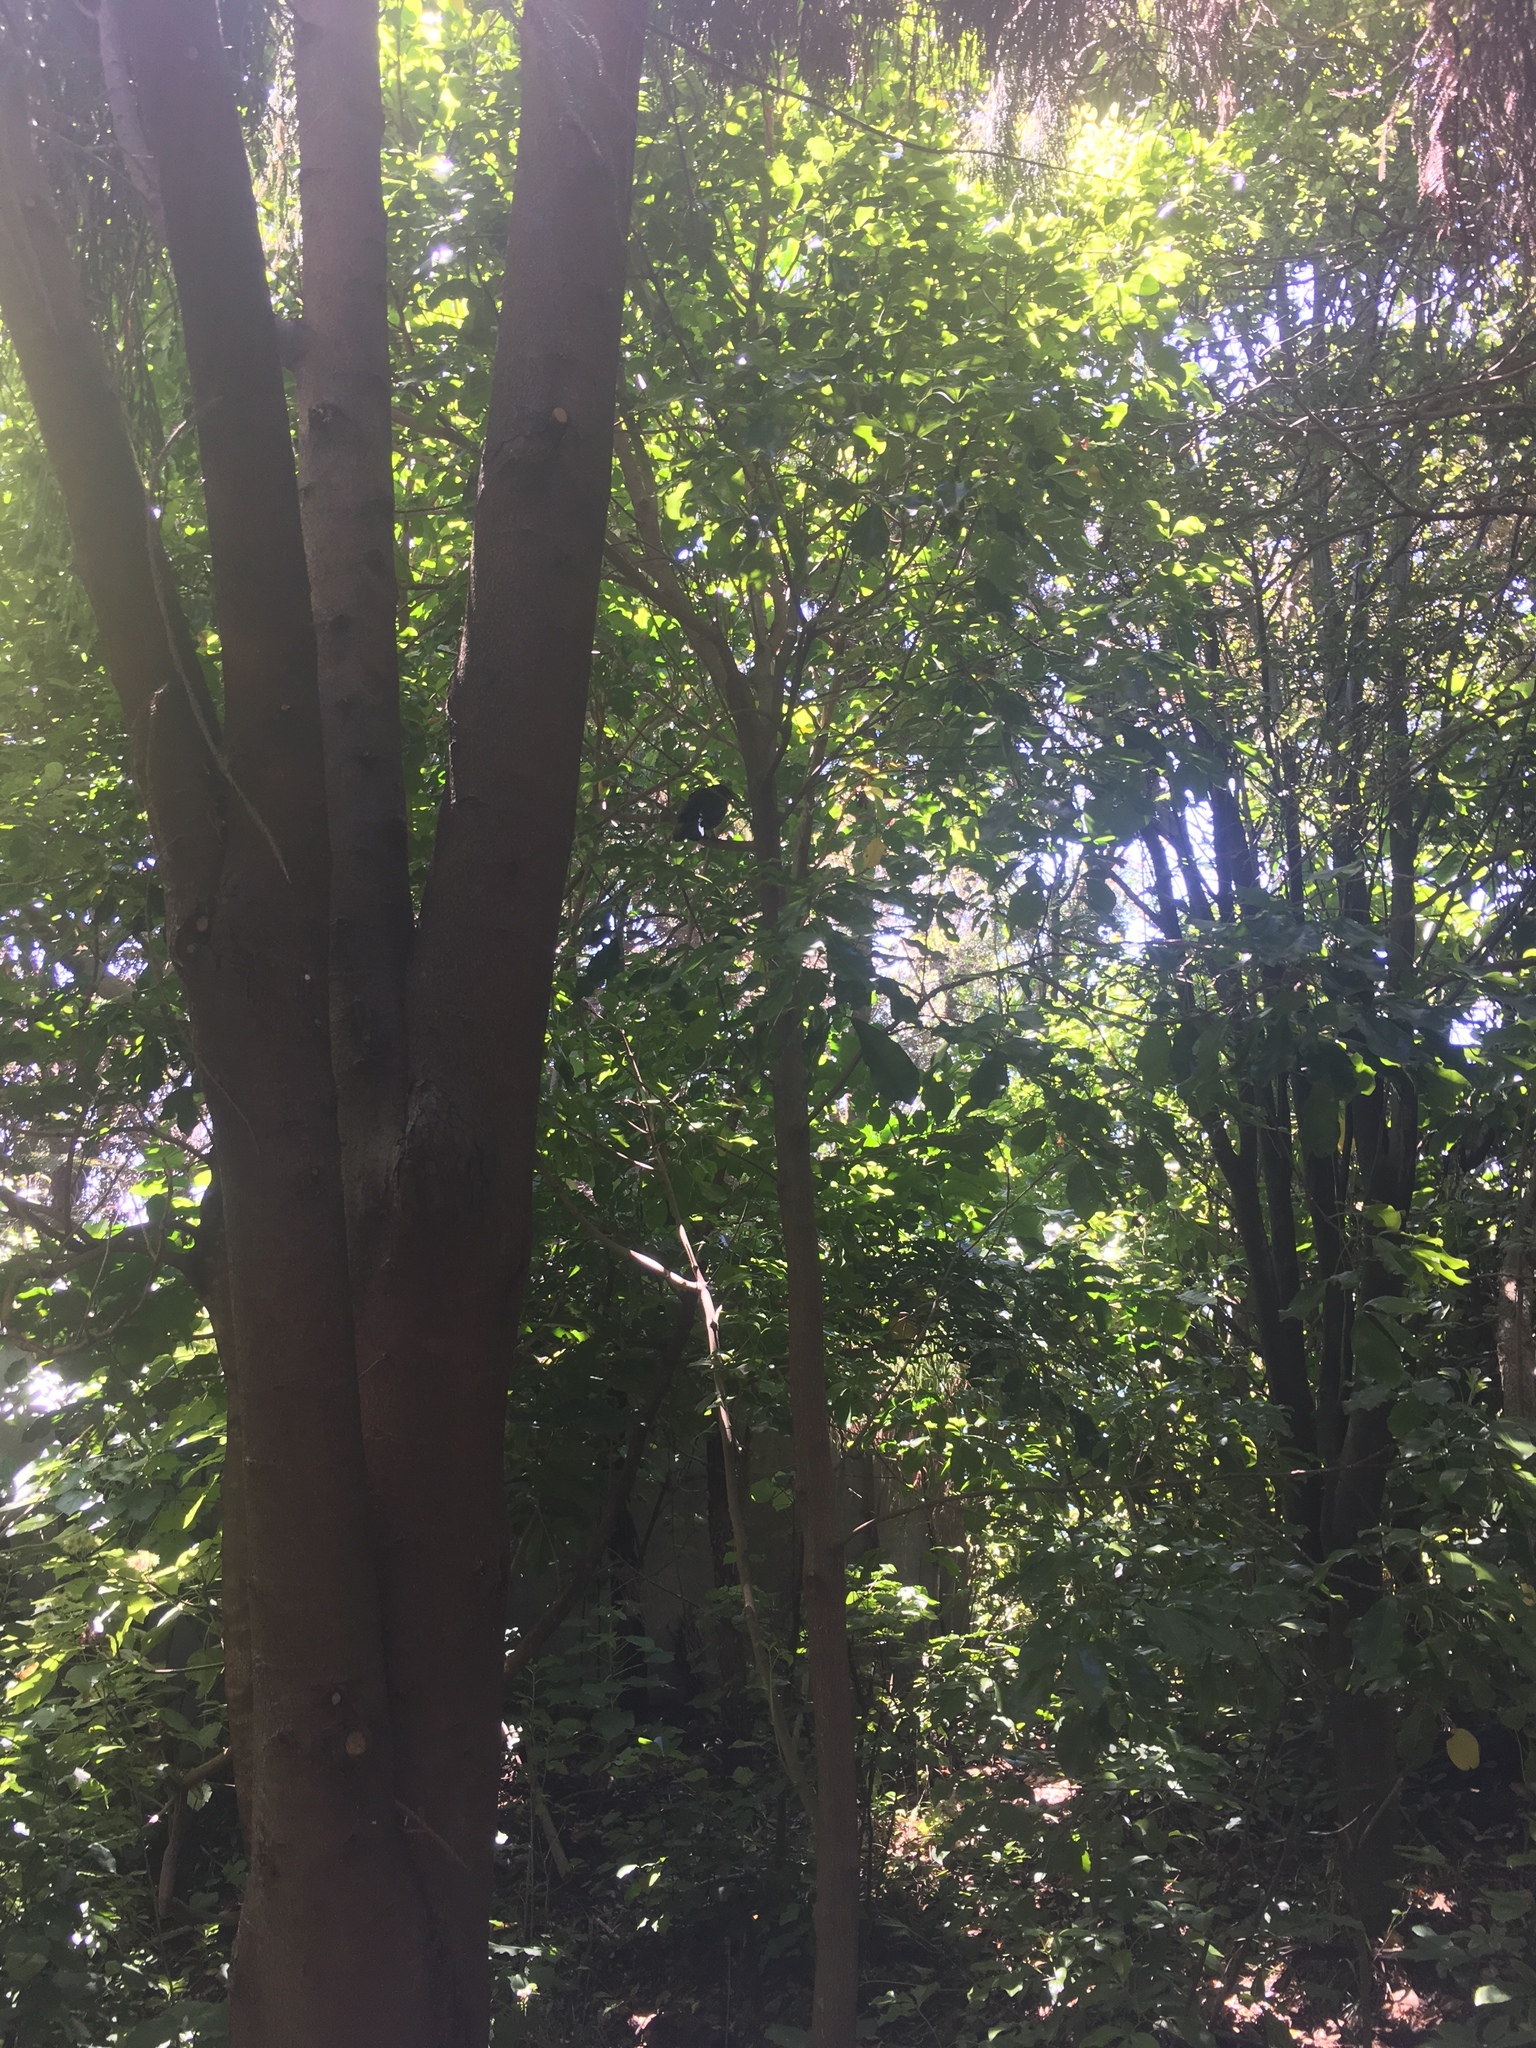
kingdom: Animalia
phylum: Chordata
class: Aves
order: Passeriformes
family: Meliphagidae
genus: Prosthemadera
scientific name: Prosthemadera novaeseelandiae
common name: Tui
